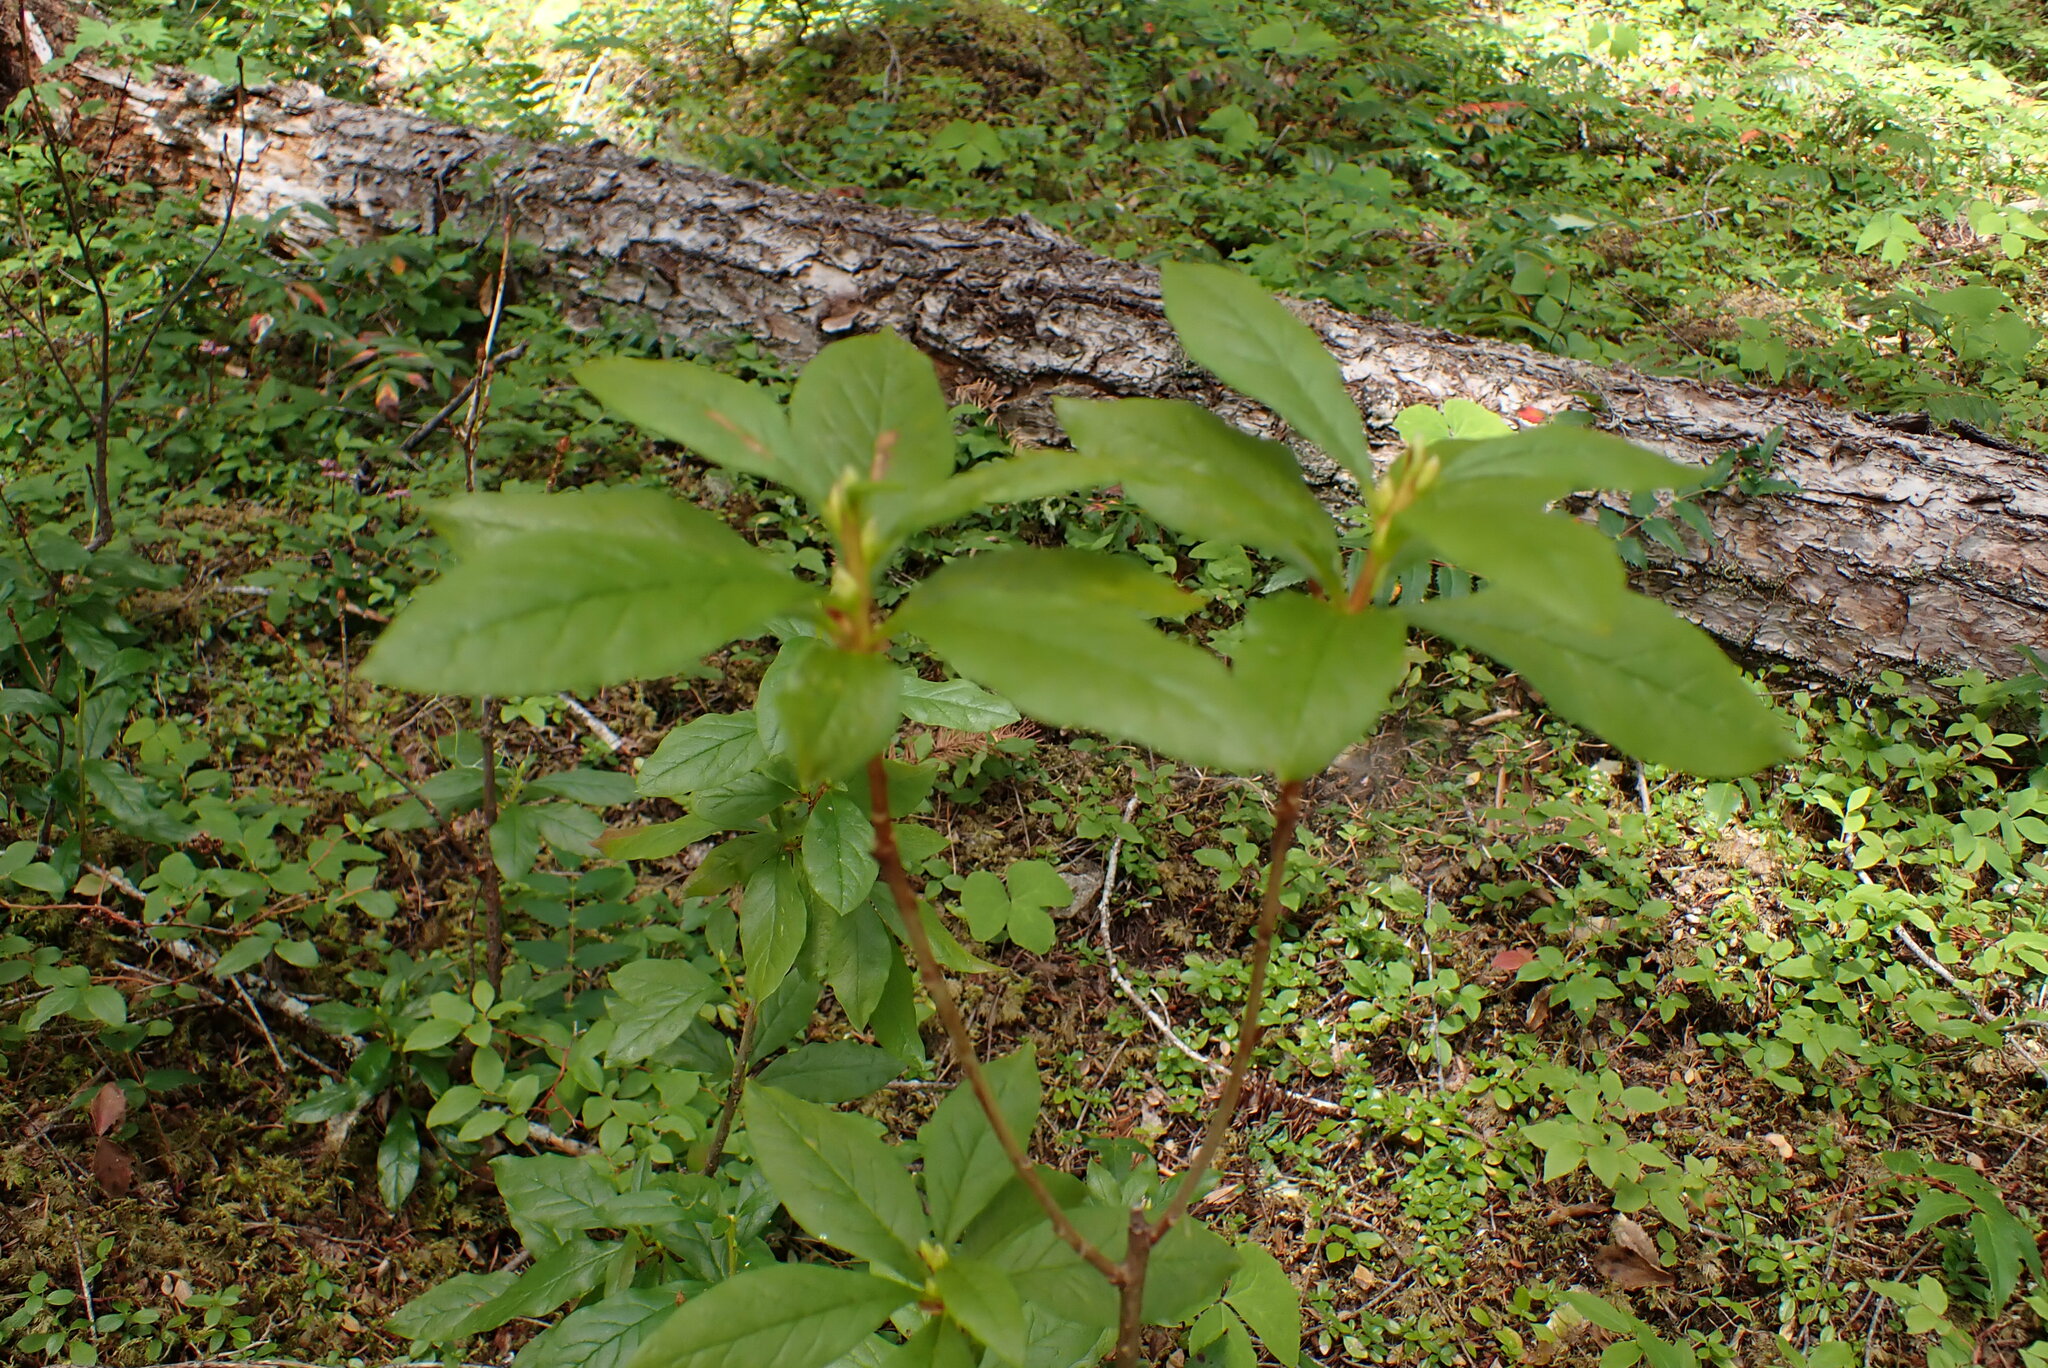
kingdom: Plantae
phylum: Tracheophyta
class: Magnoliopsida
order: Ericales
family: Ericaceae
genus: Rhododendron
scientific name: Rhododendron albiflorum
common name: White rhododendron
